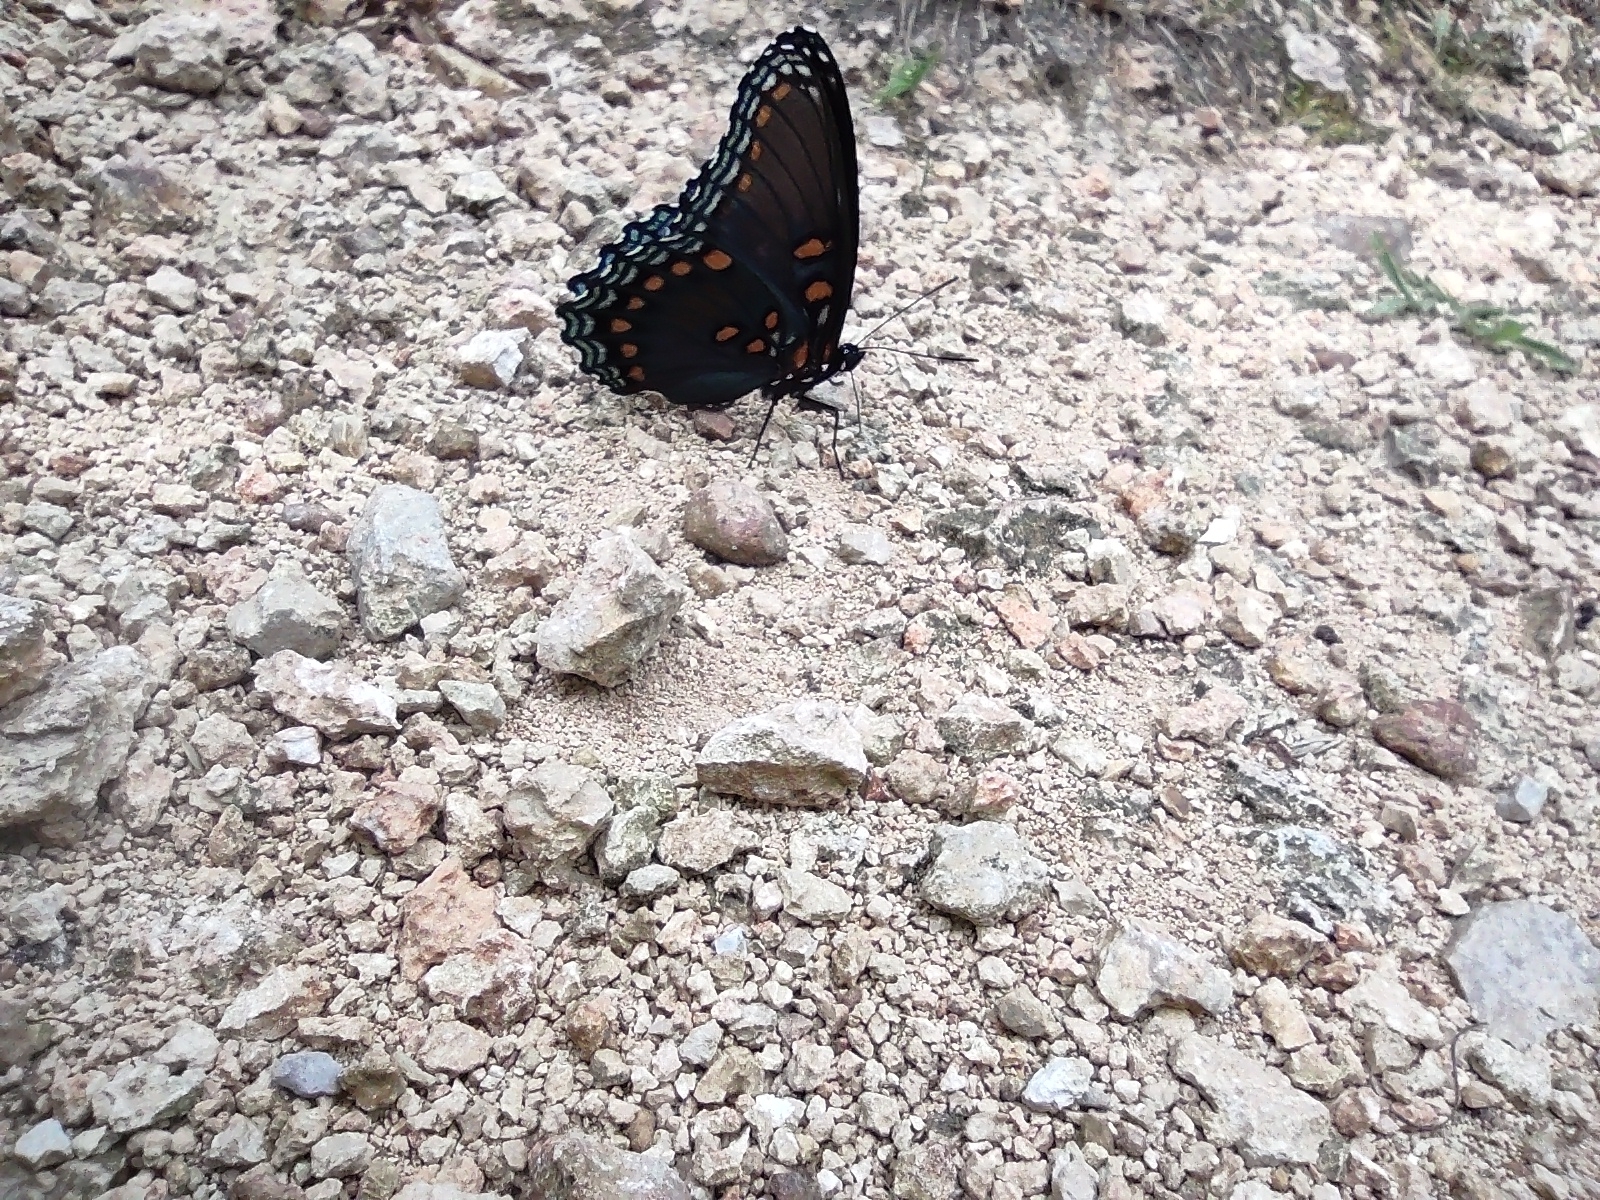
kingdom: Animalia
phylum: Arthropoda
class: Insecta
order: Lepidoptera
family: Nymphalidae
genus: Limenitis
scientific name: Limenitis arthemis
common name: Red-spotted admiral
